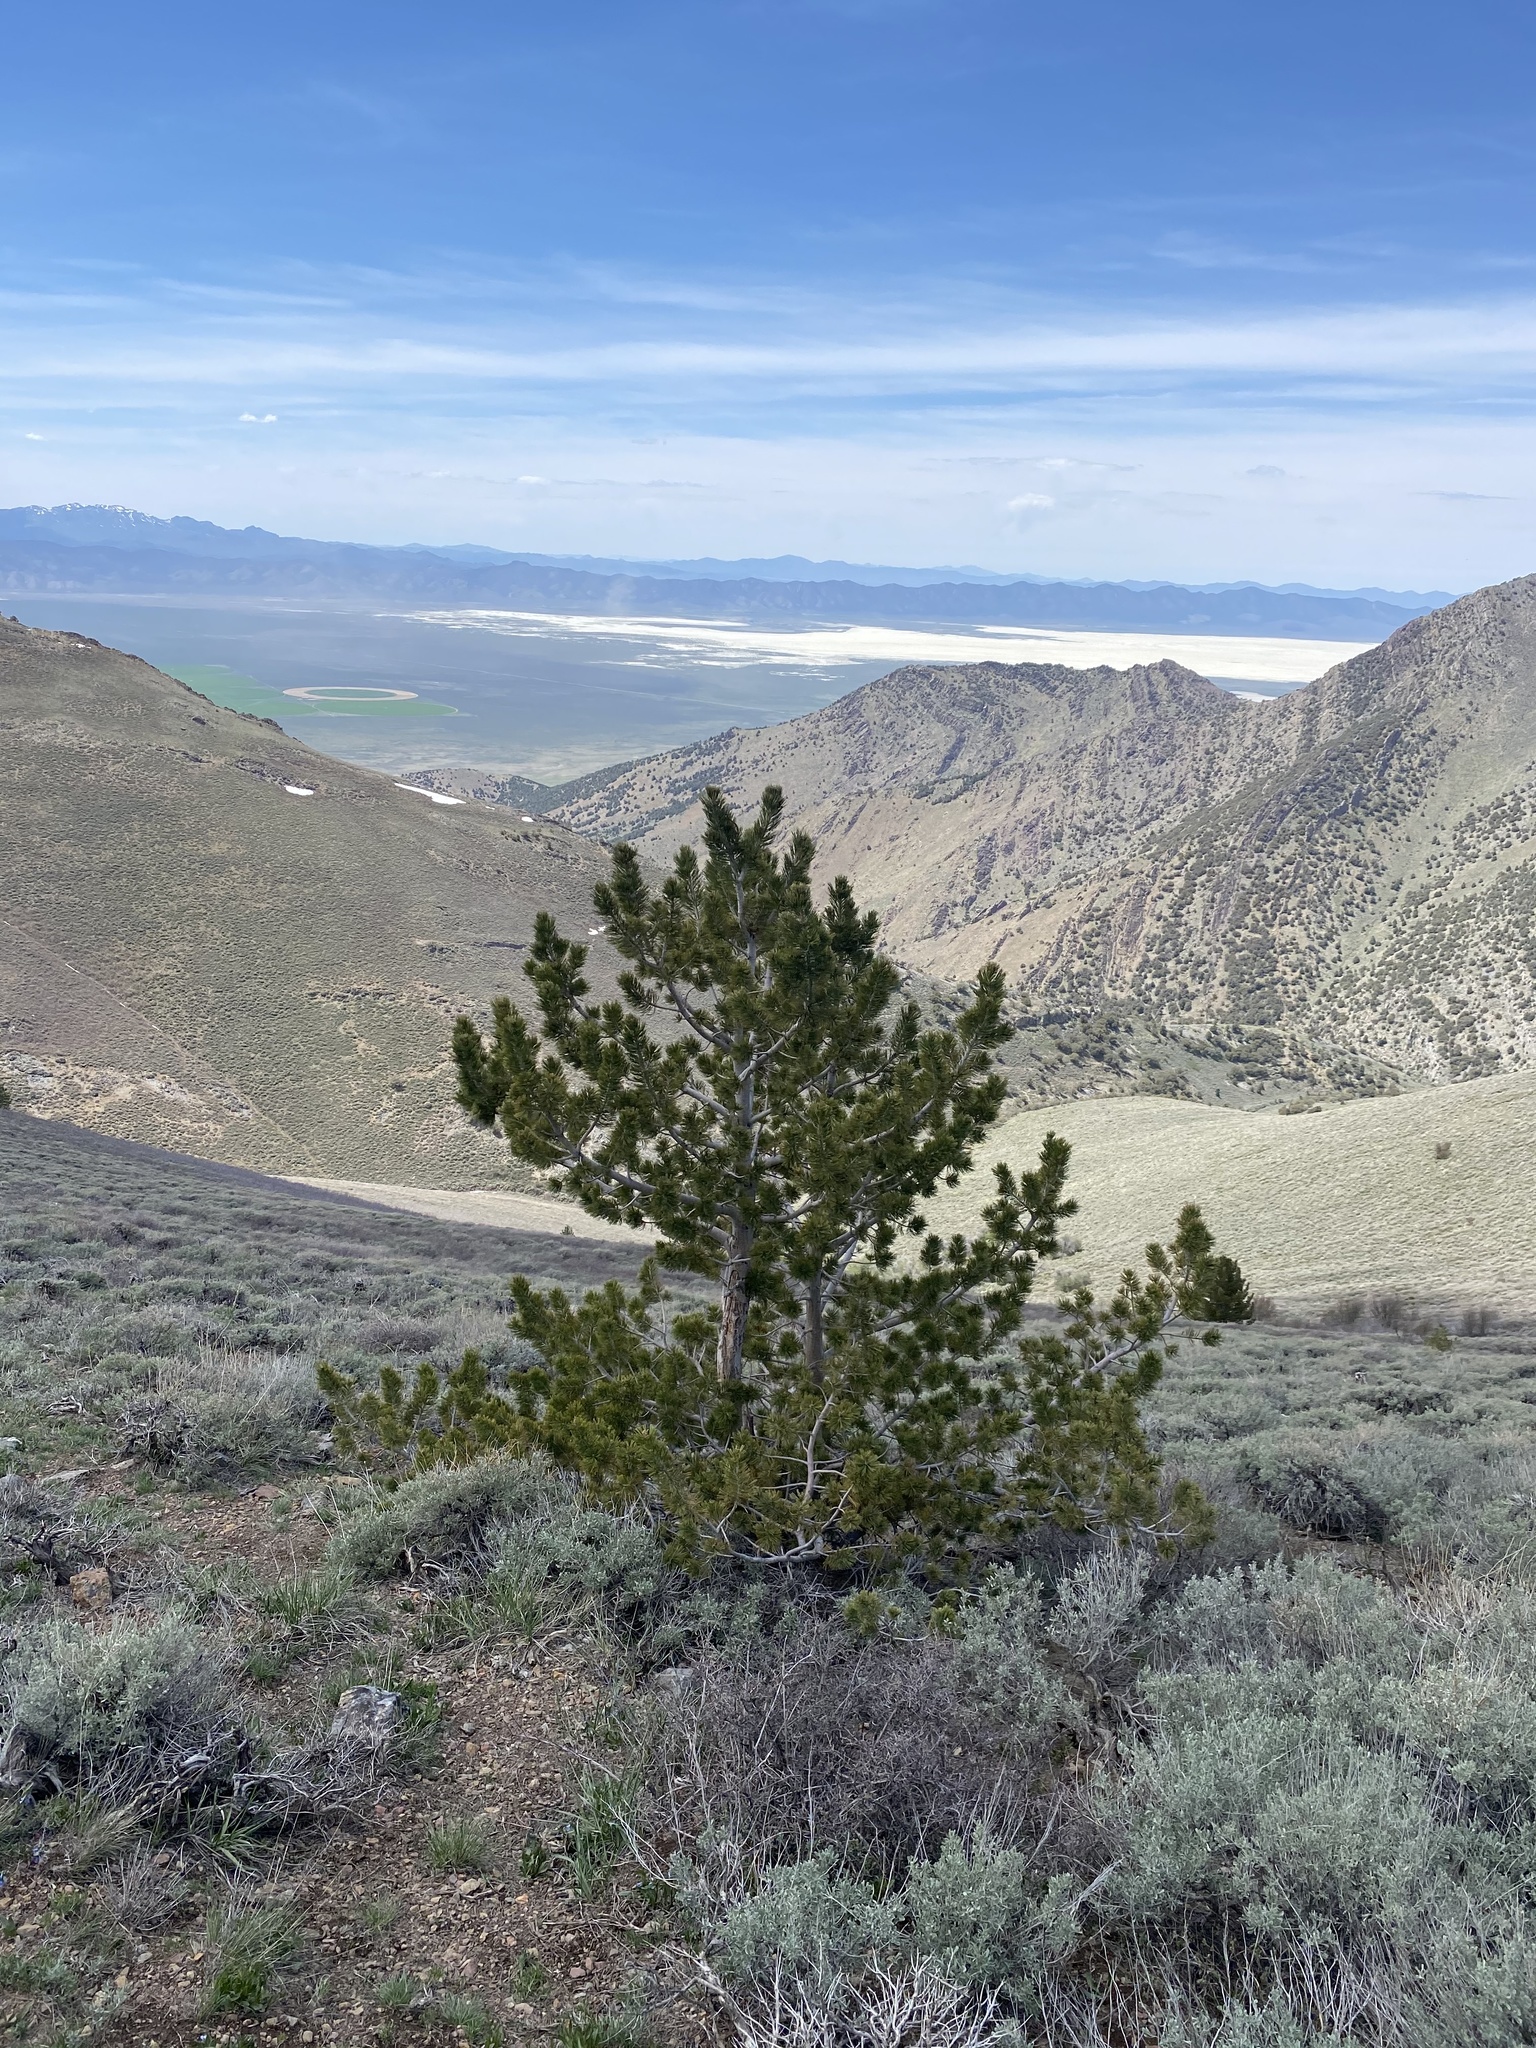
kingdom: Plantae
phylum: Tracheophyta
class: Pinopsida
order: Pinales
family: Pinaceae
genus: Pinus
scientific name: Pinus flexilis
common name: Limber pine
